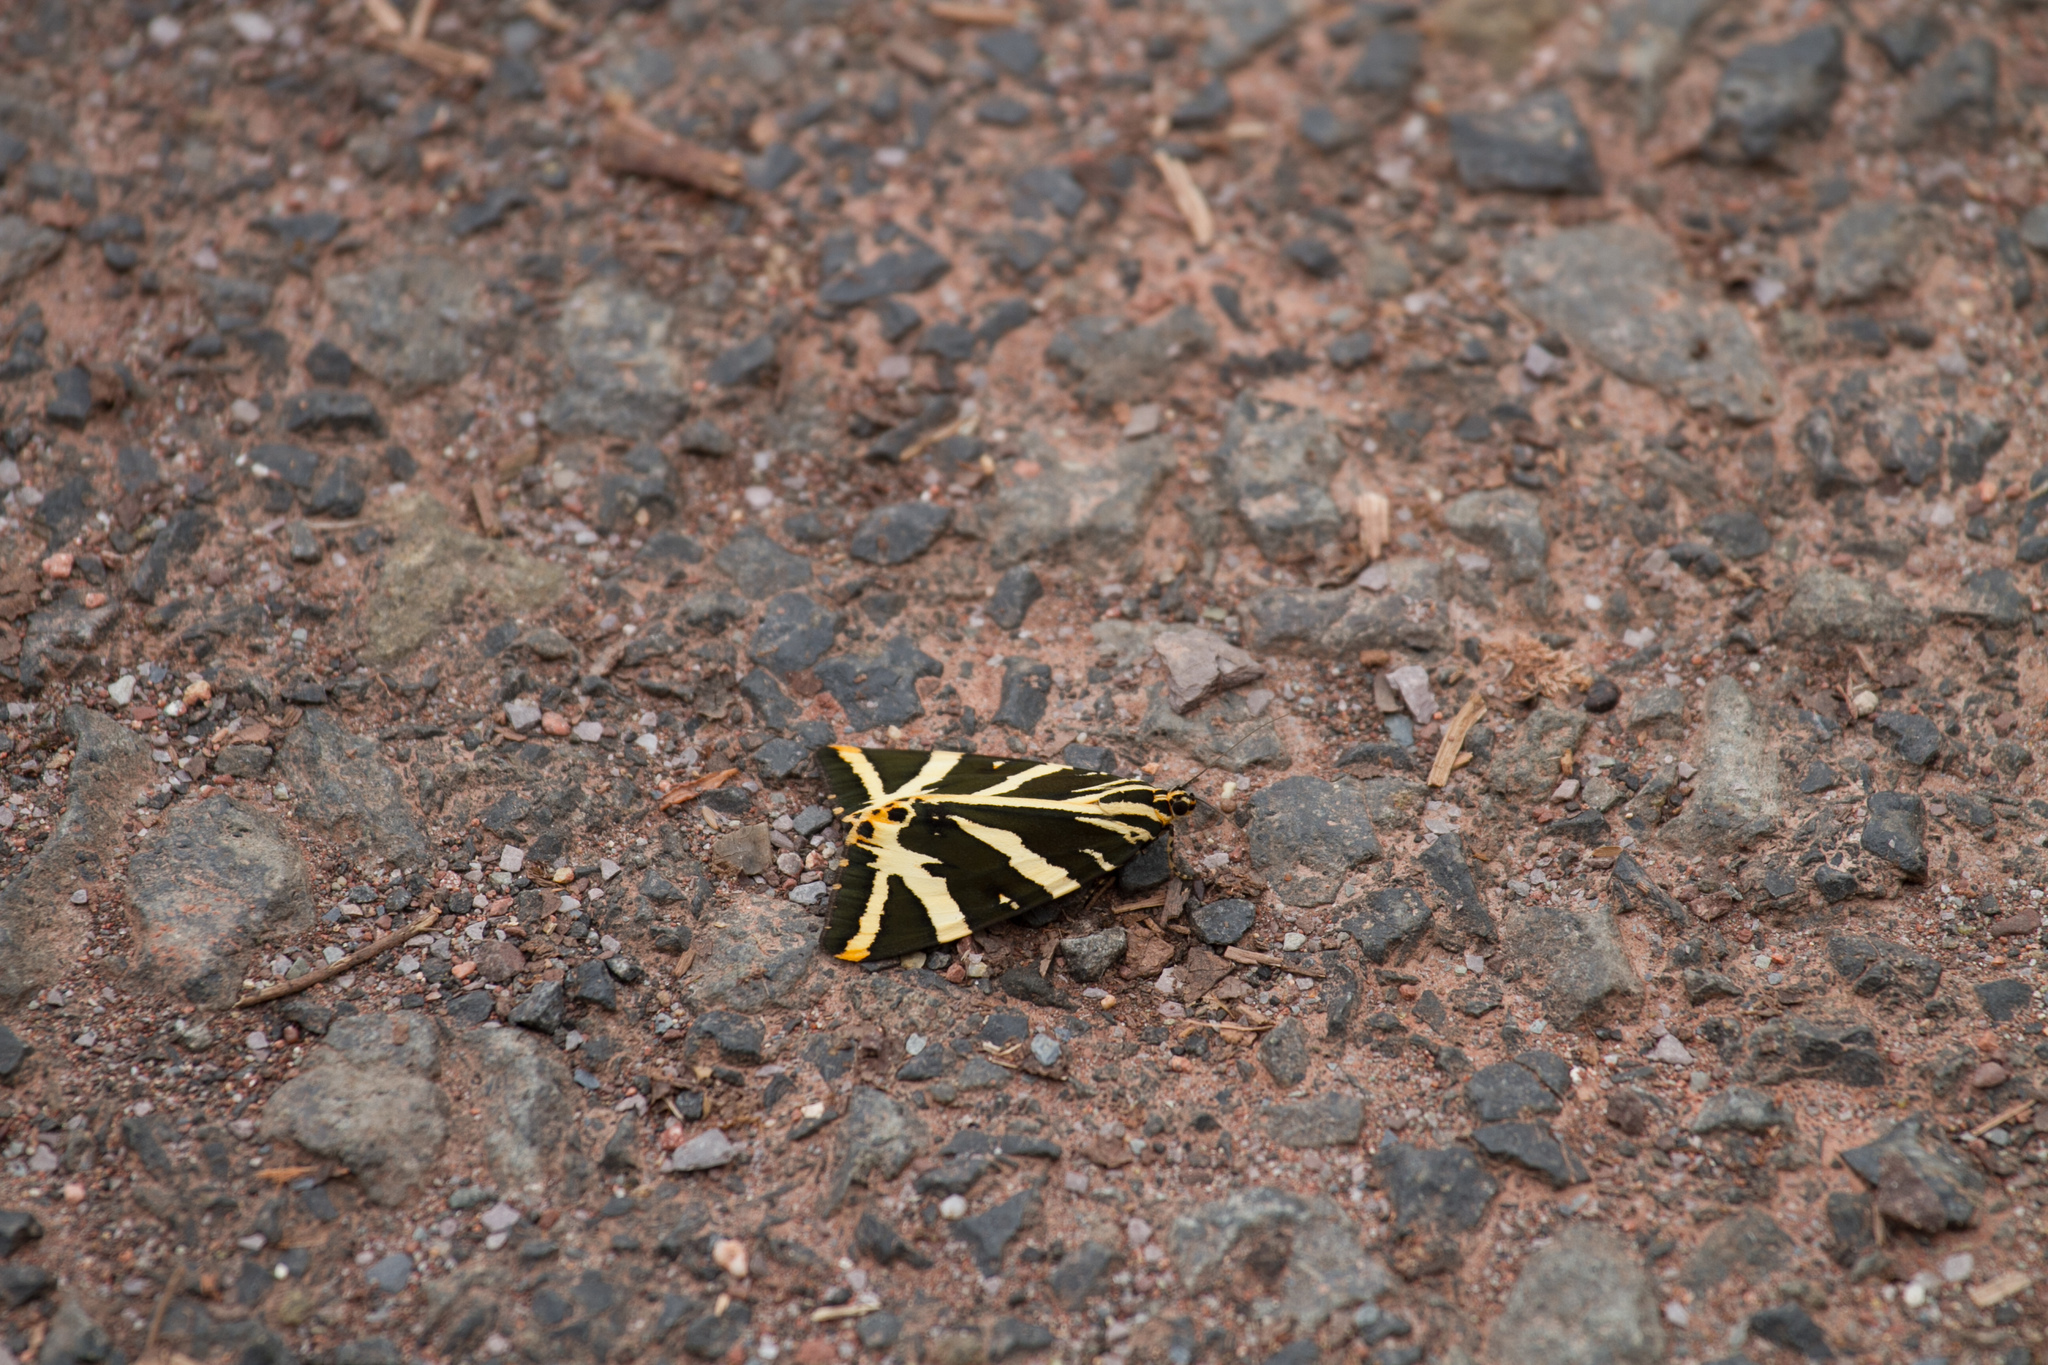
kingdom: Animalia
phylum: Arthropoda
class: Insecta
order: Lepidoptera
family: Erebidae
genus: Euplagia
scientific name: Euplagia quadripunctaria
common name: Jersey tiger
